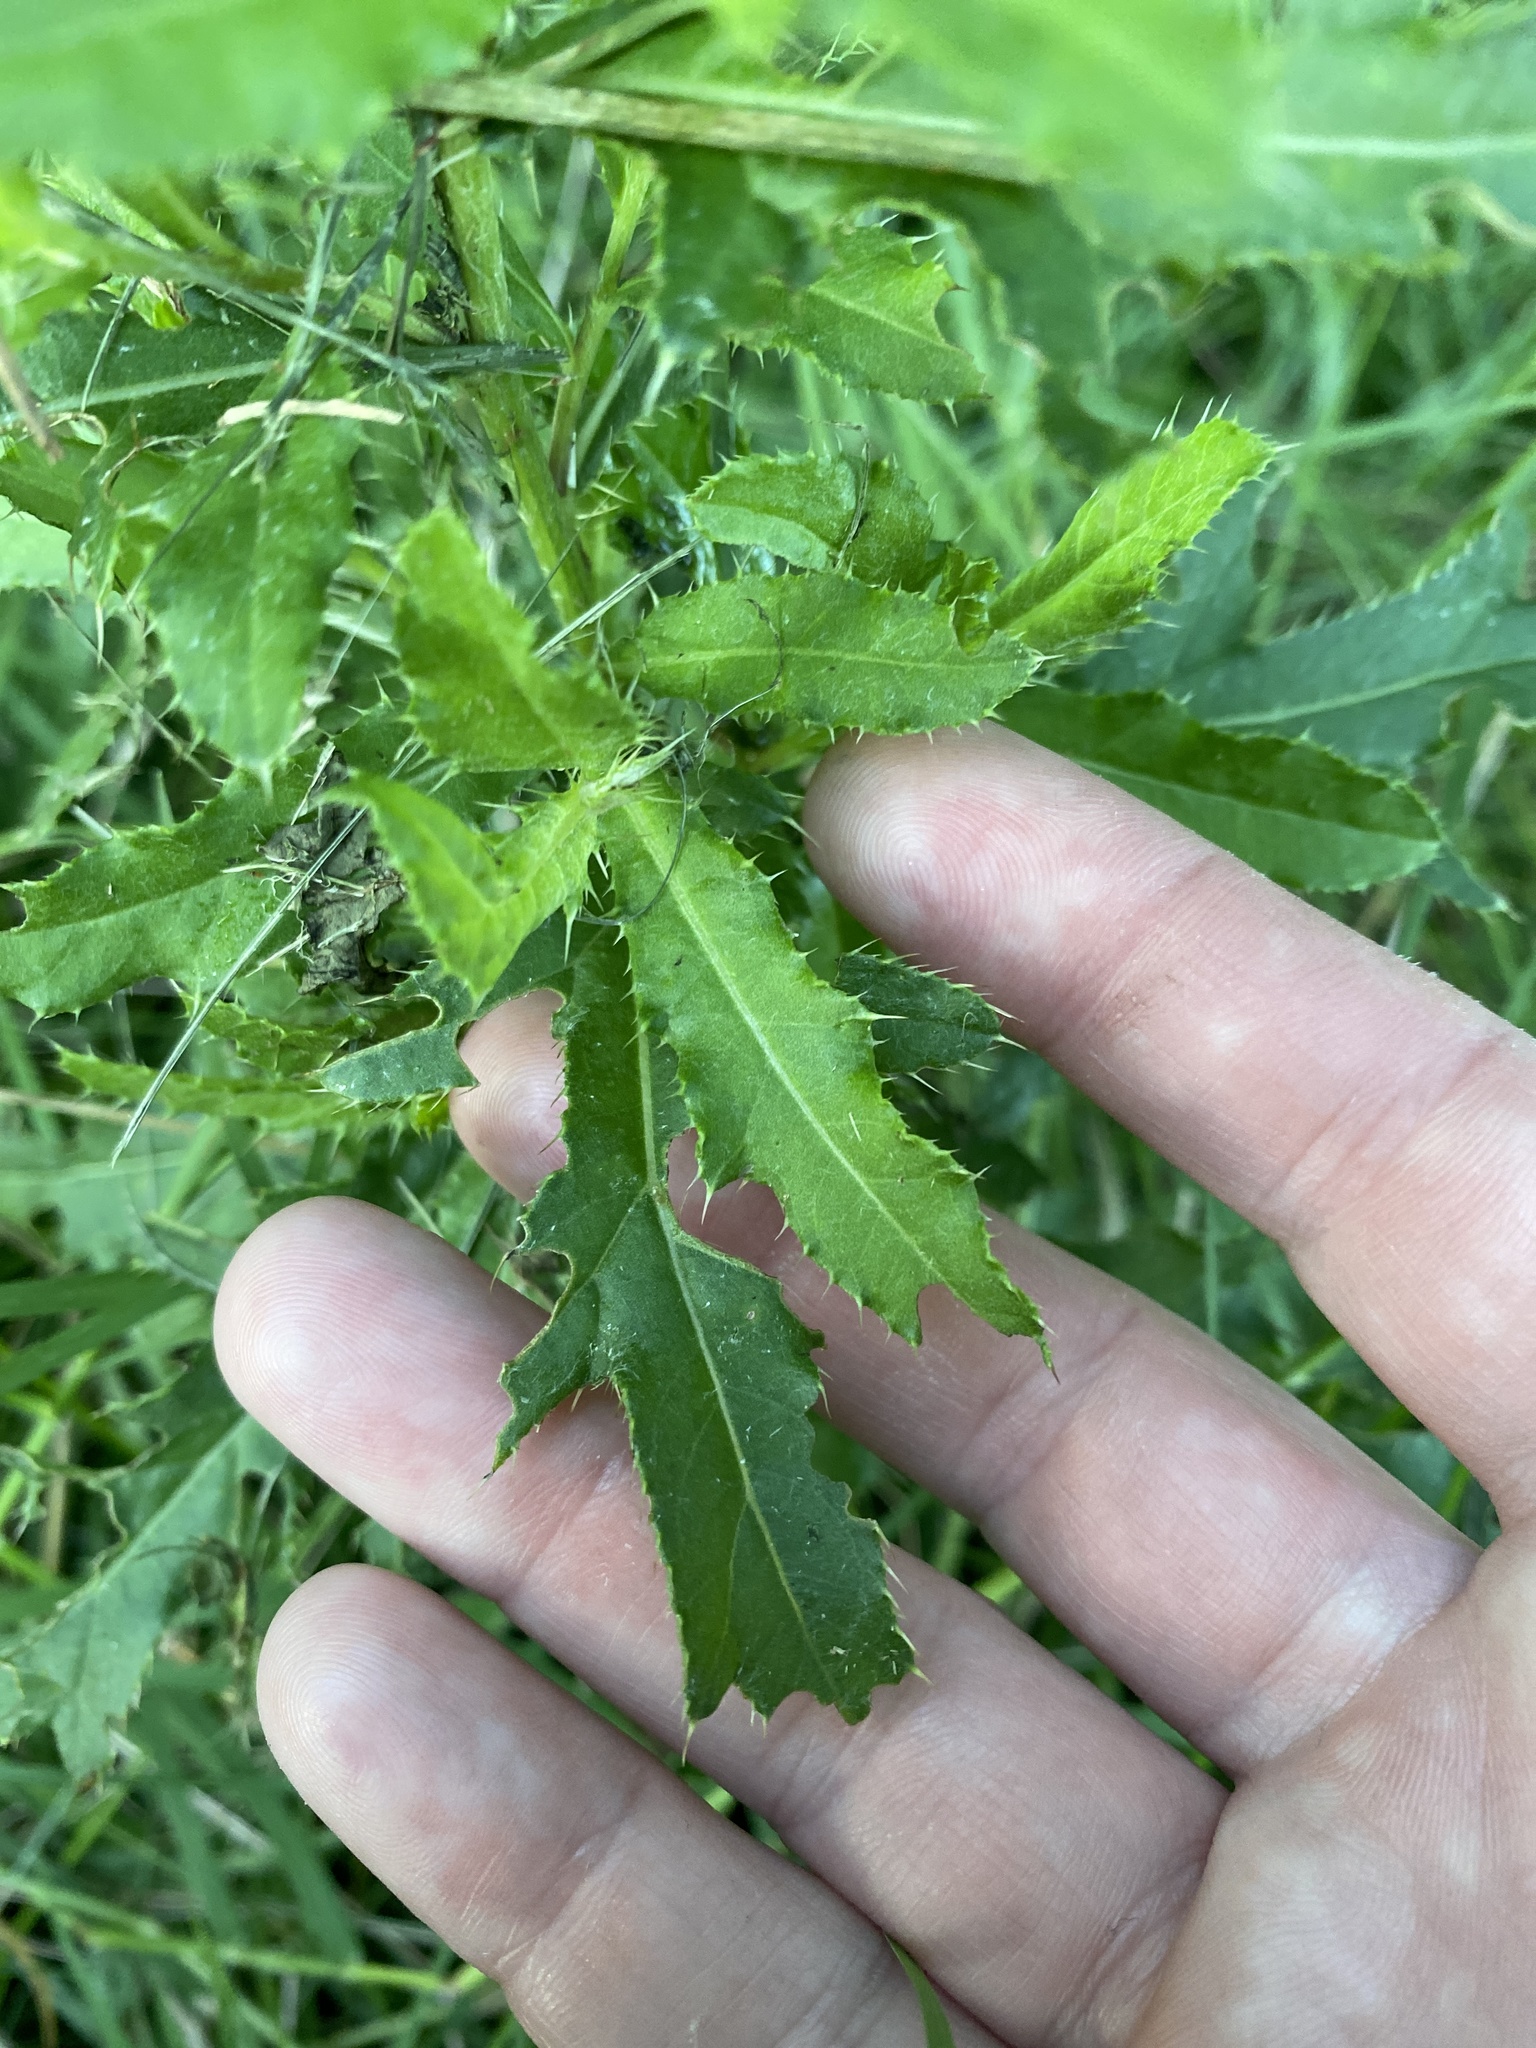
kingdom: Plantae
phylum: Tracheophyta
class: Magnoliopsida
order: Asterales
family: Asteraceae
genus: Cirsium
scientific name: Cirsium arvense
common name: Creeping thistle
